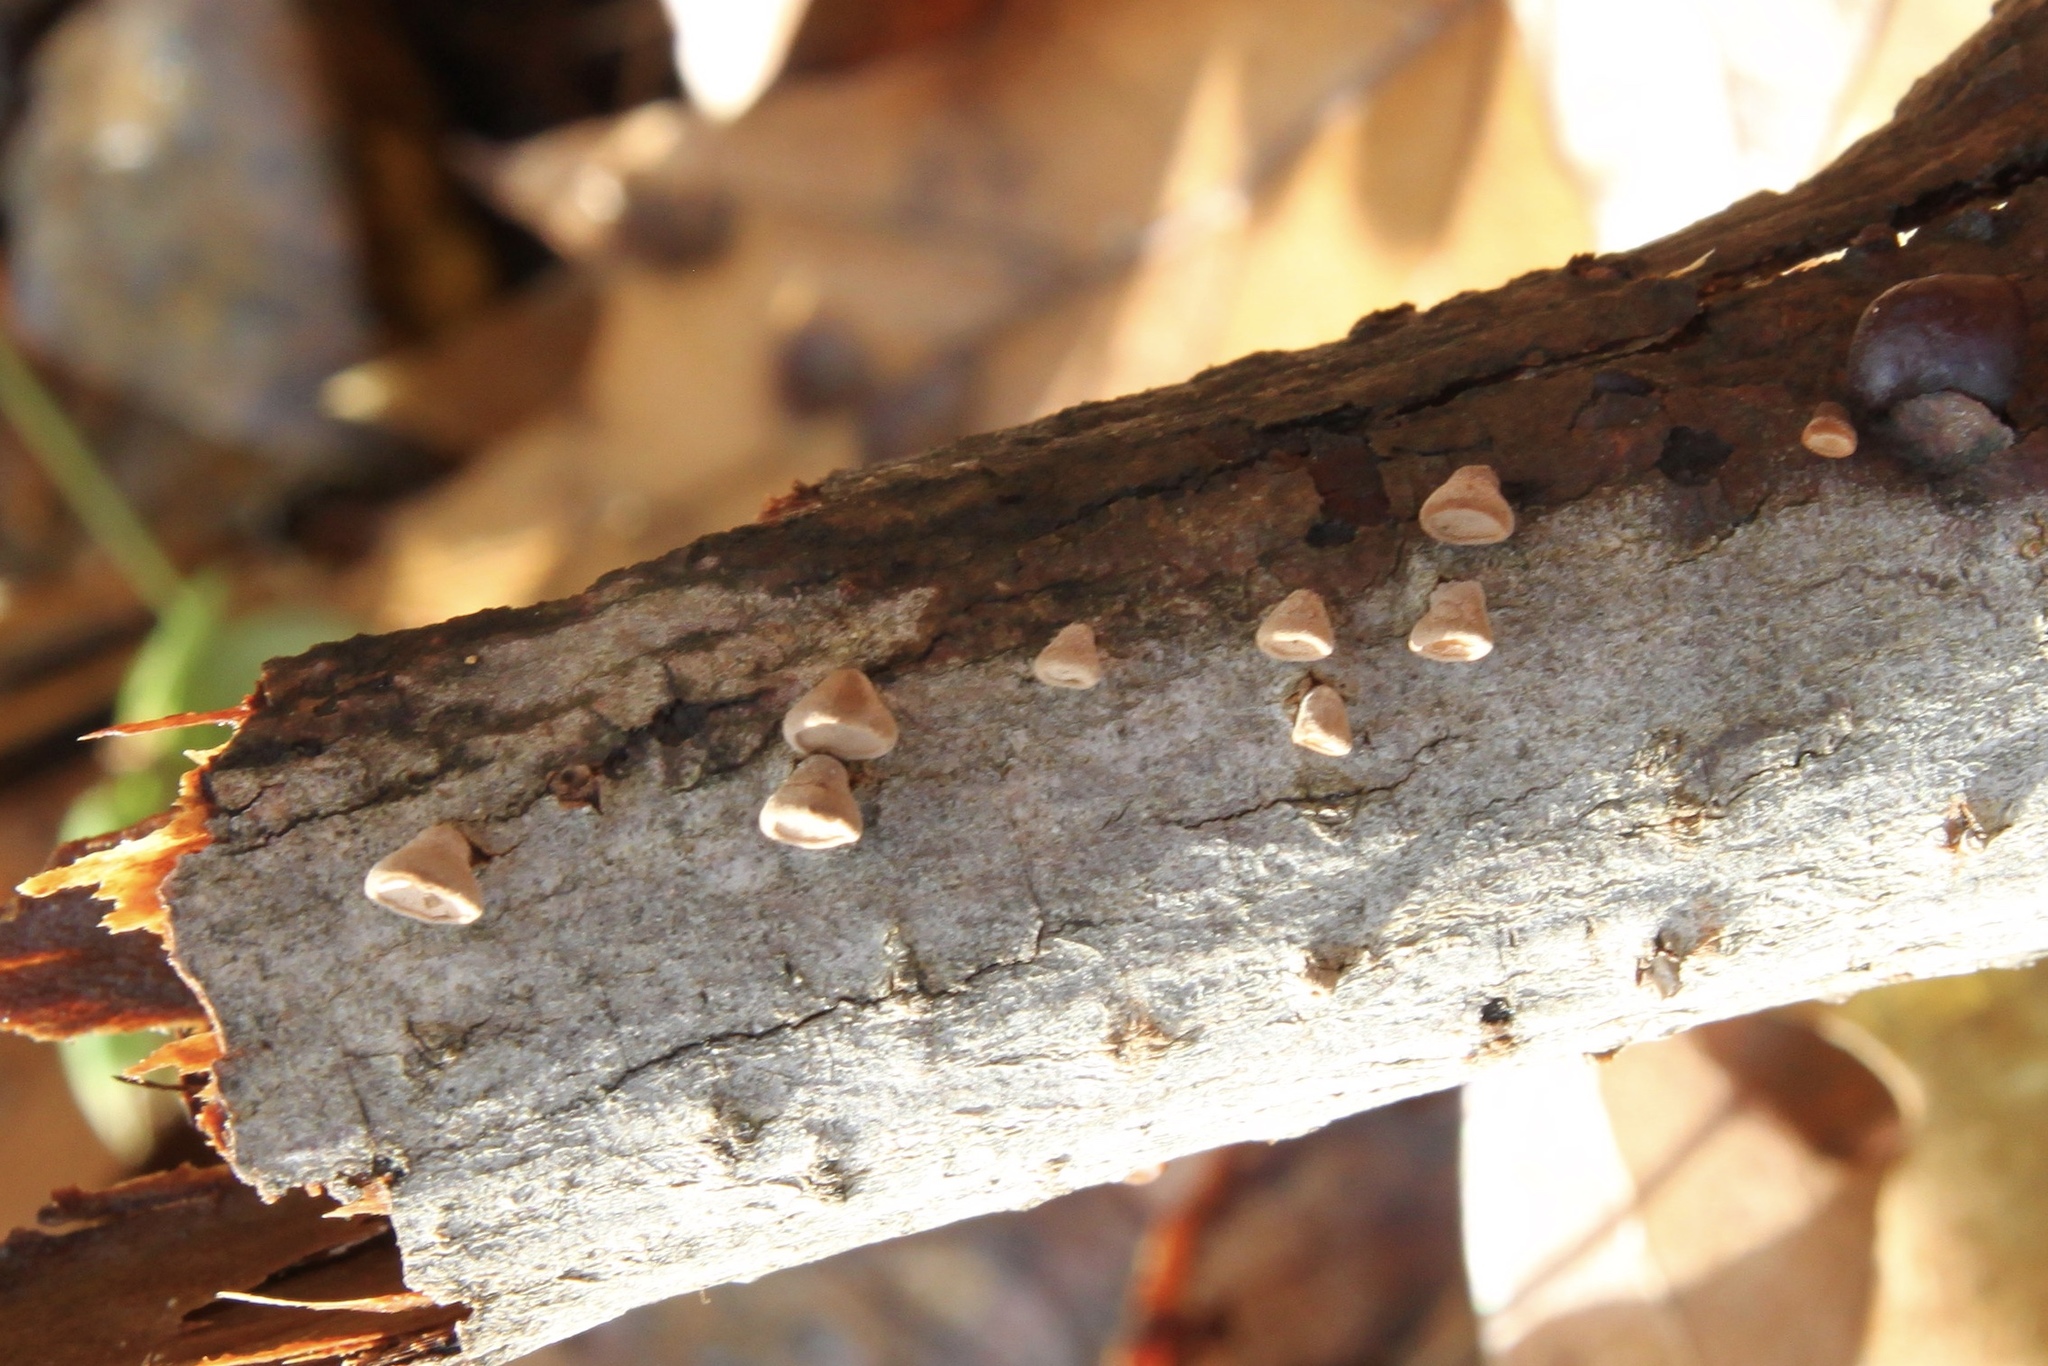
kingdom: Fungi
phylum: Basidiomycota
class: Agaricomycetes
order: Agaricales
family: Schizophyllaceae
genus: Porodisculus
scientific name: Porodisculus pendulus
